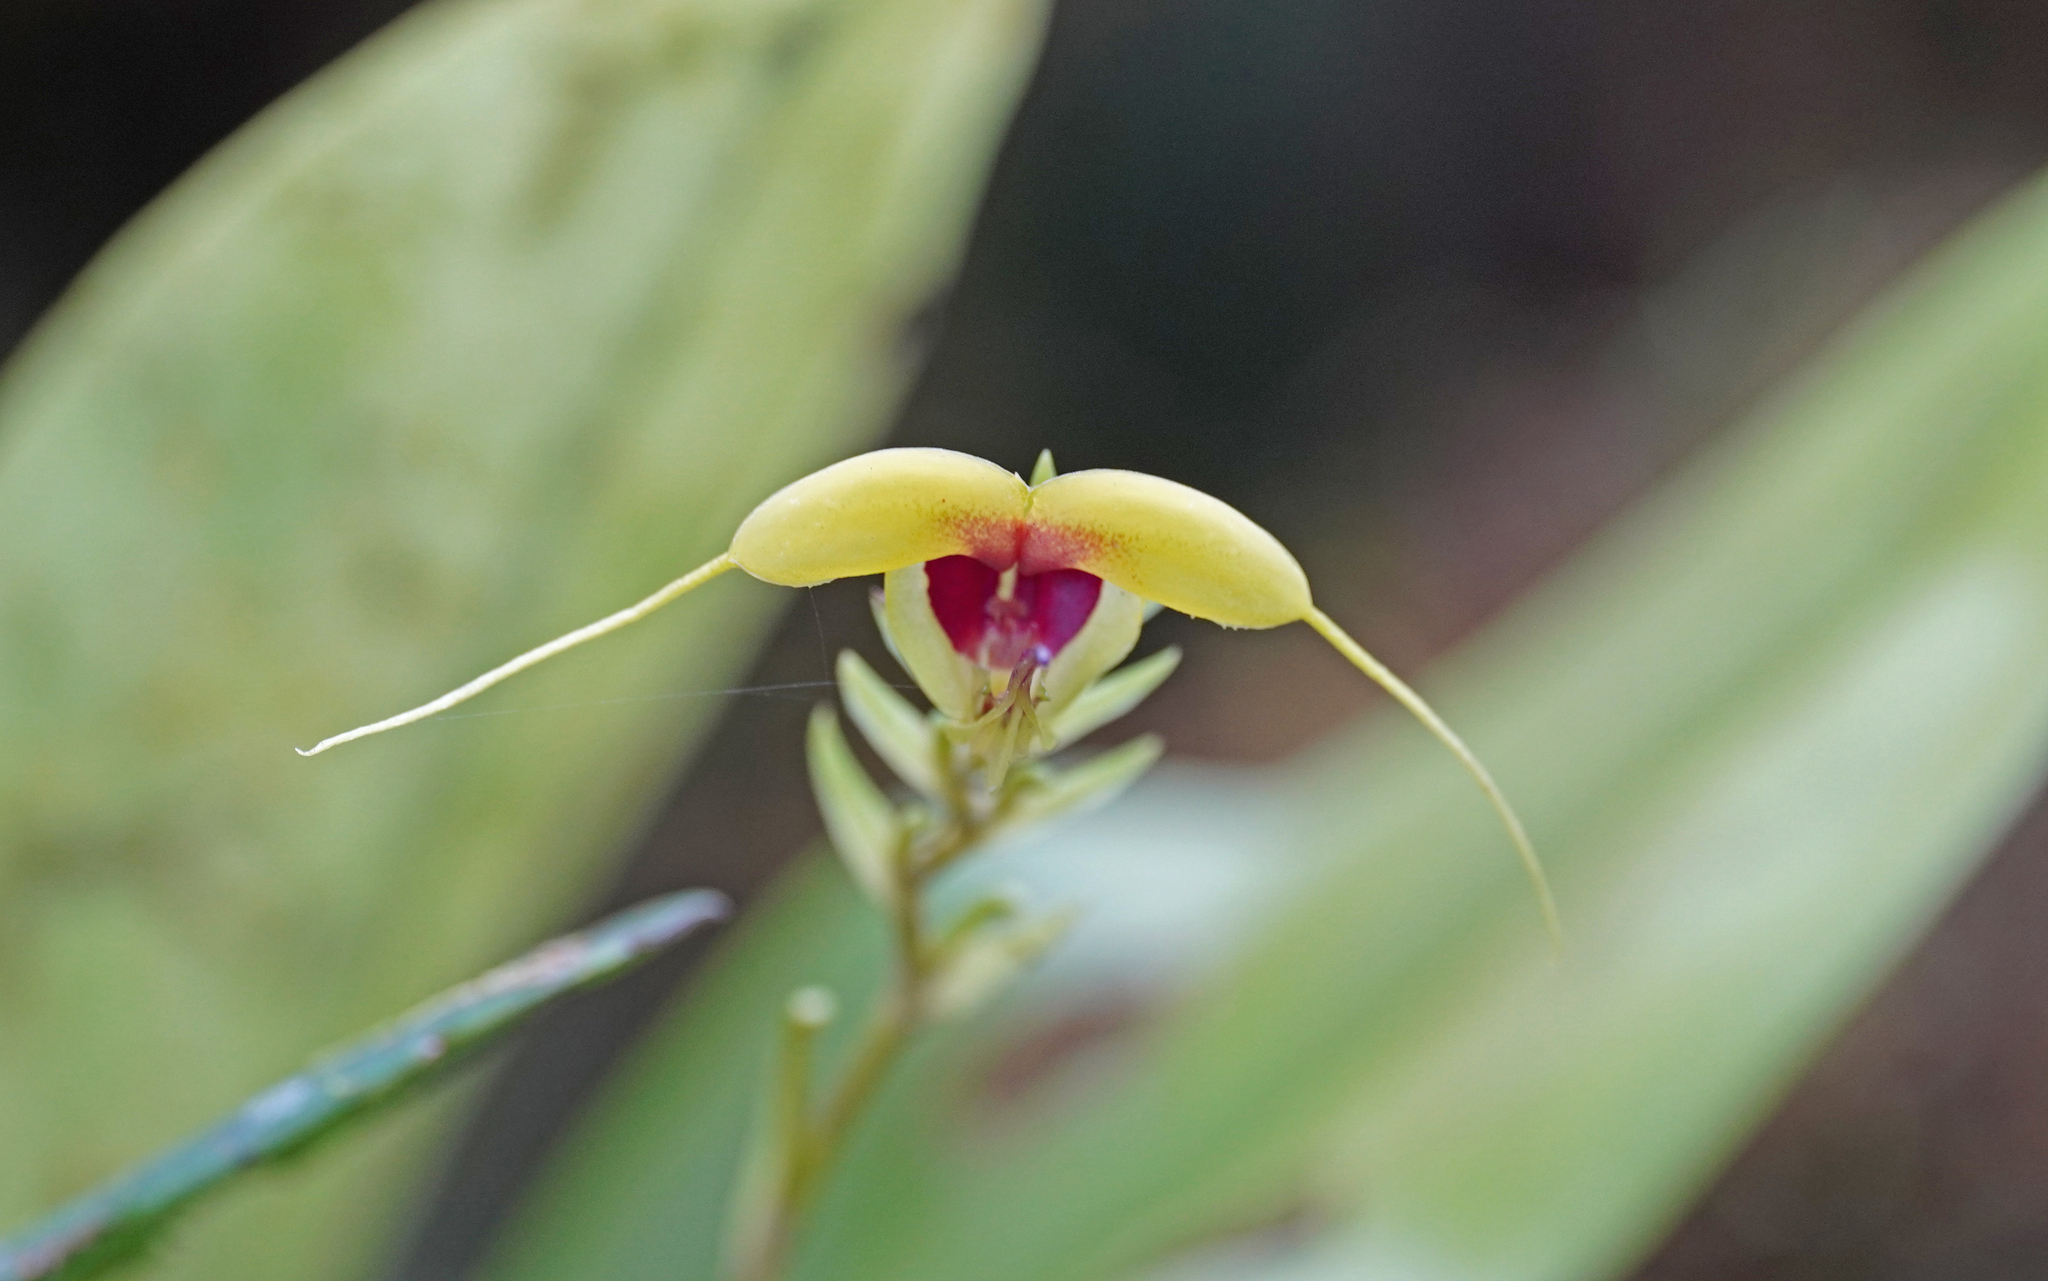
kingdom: Plantae
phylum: Tracheophyta
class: Liliopsida
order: Asparagales
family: Orchidaceae
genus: Scaphosepalum
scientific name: Scaphosepalum grande
